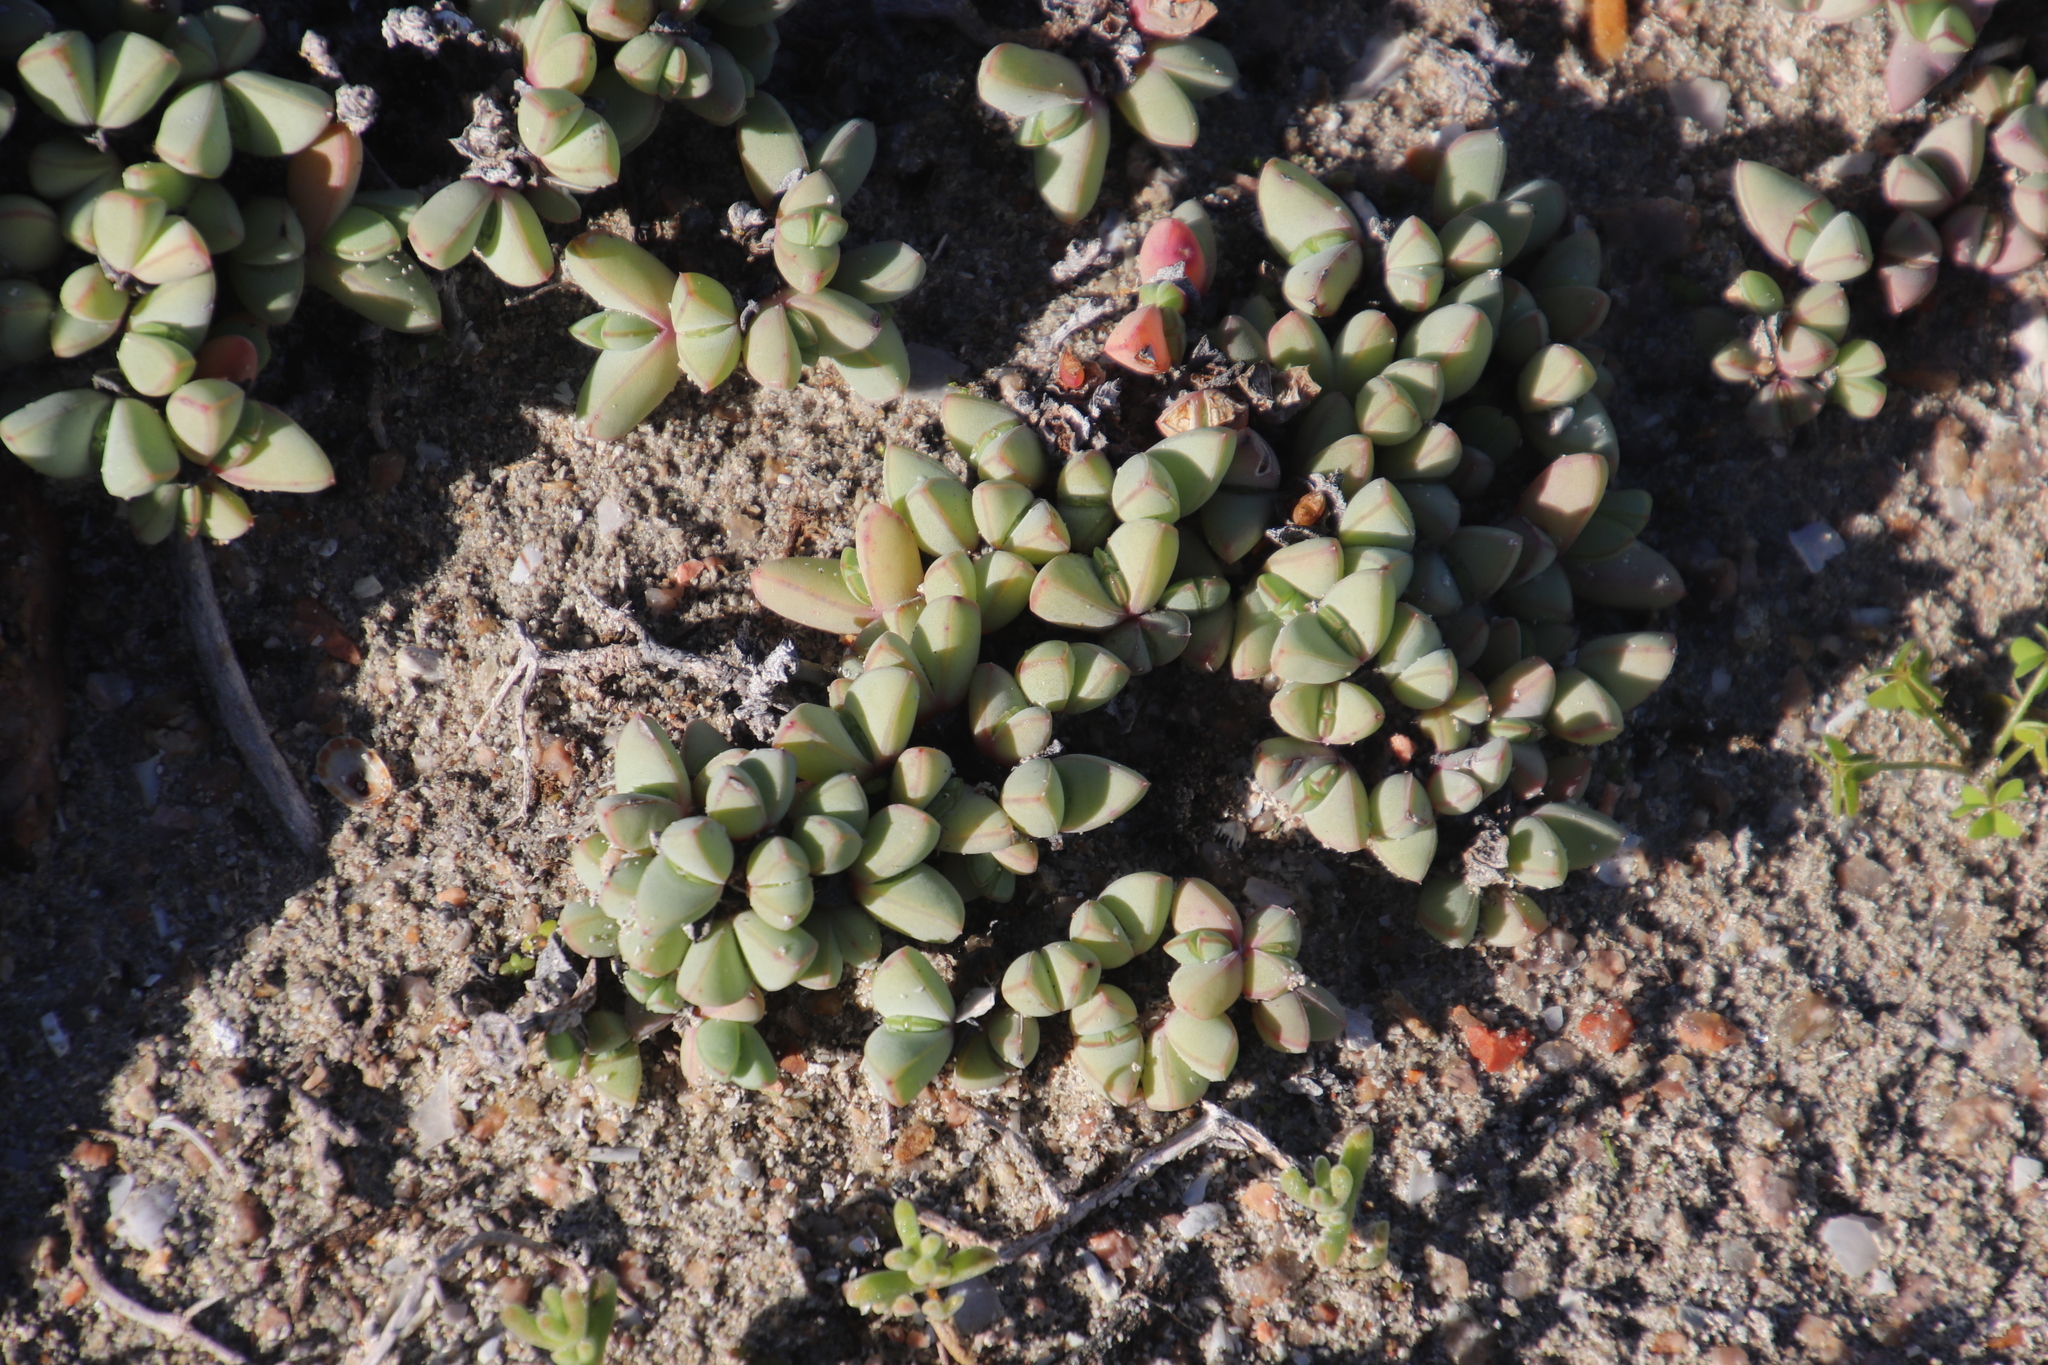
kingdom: Plantae
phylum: Tracheophyta
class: Magnoliopsida
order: Caryophyllales
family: Aizoaceae
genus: Oscularia
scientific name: Oscularia steenbergensis
